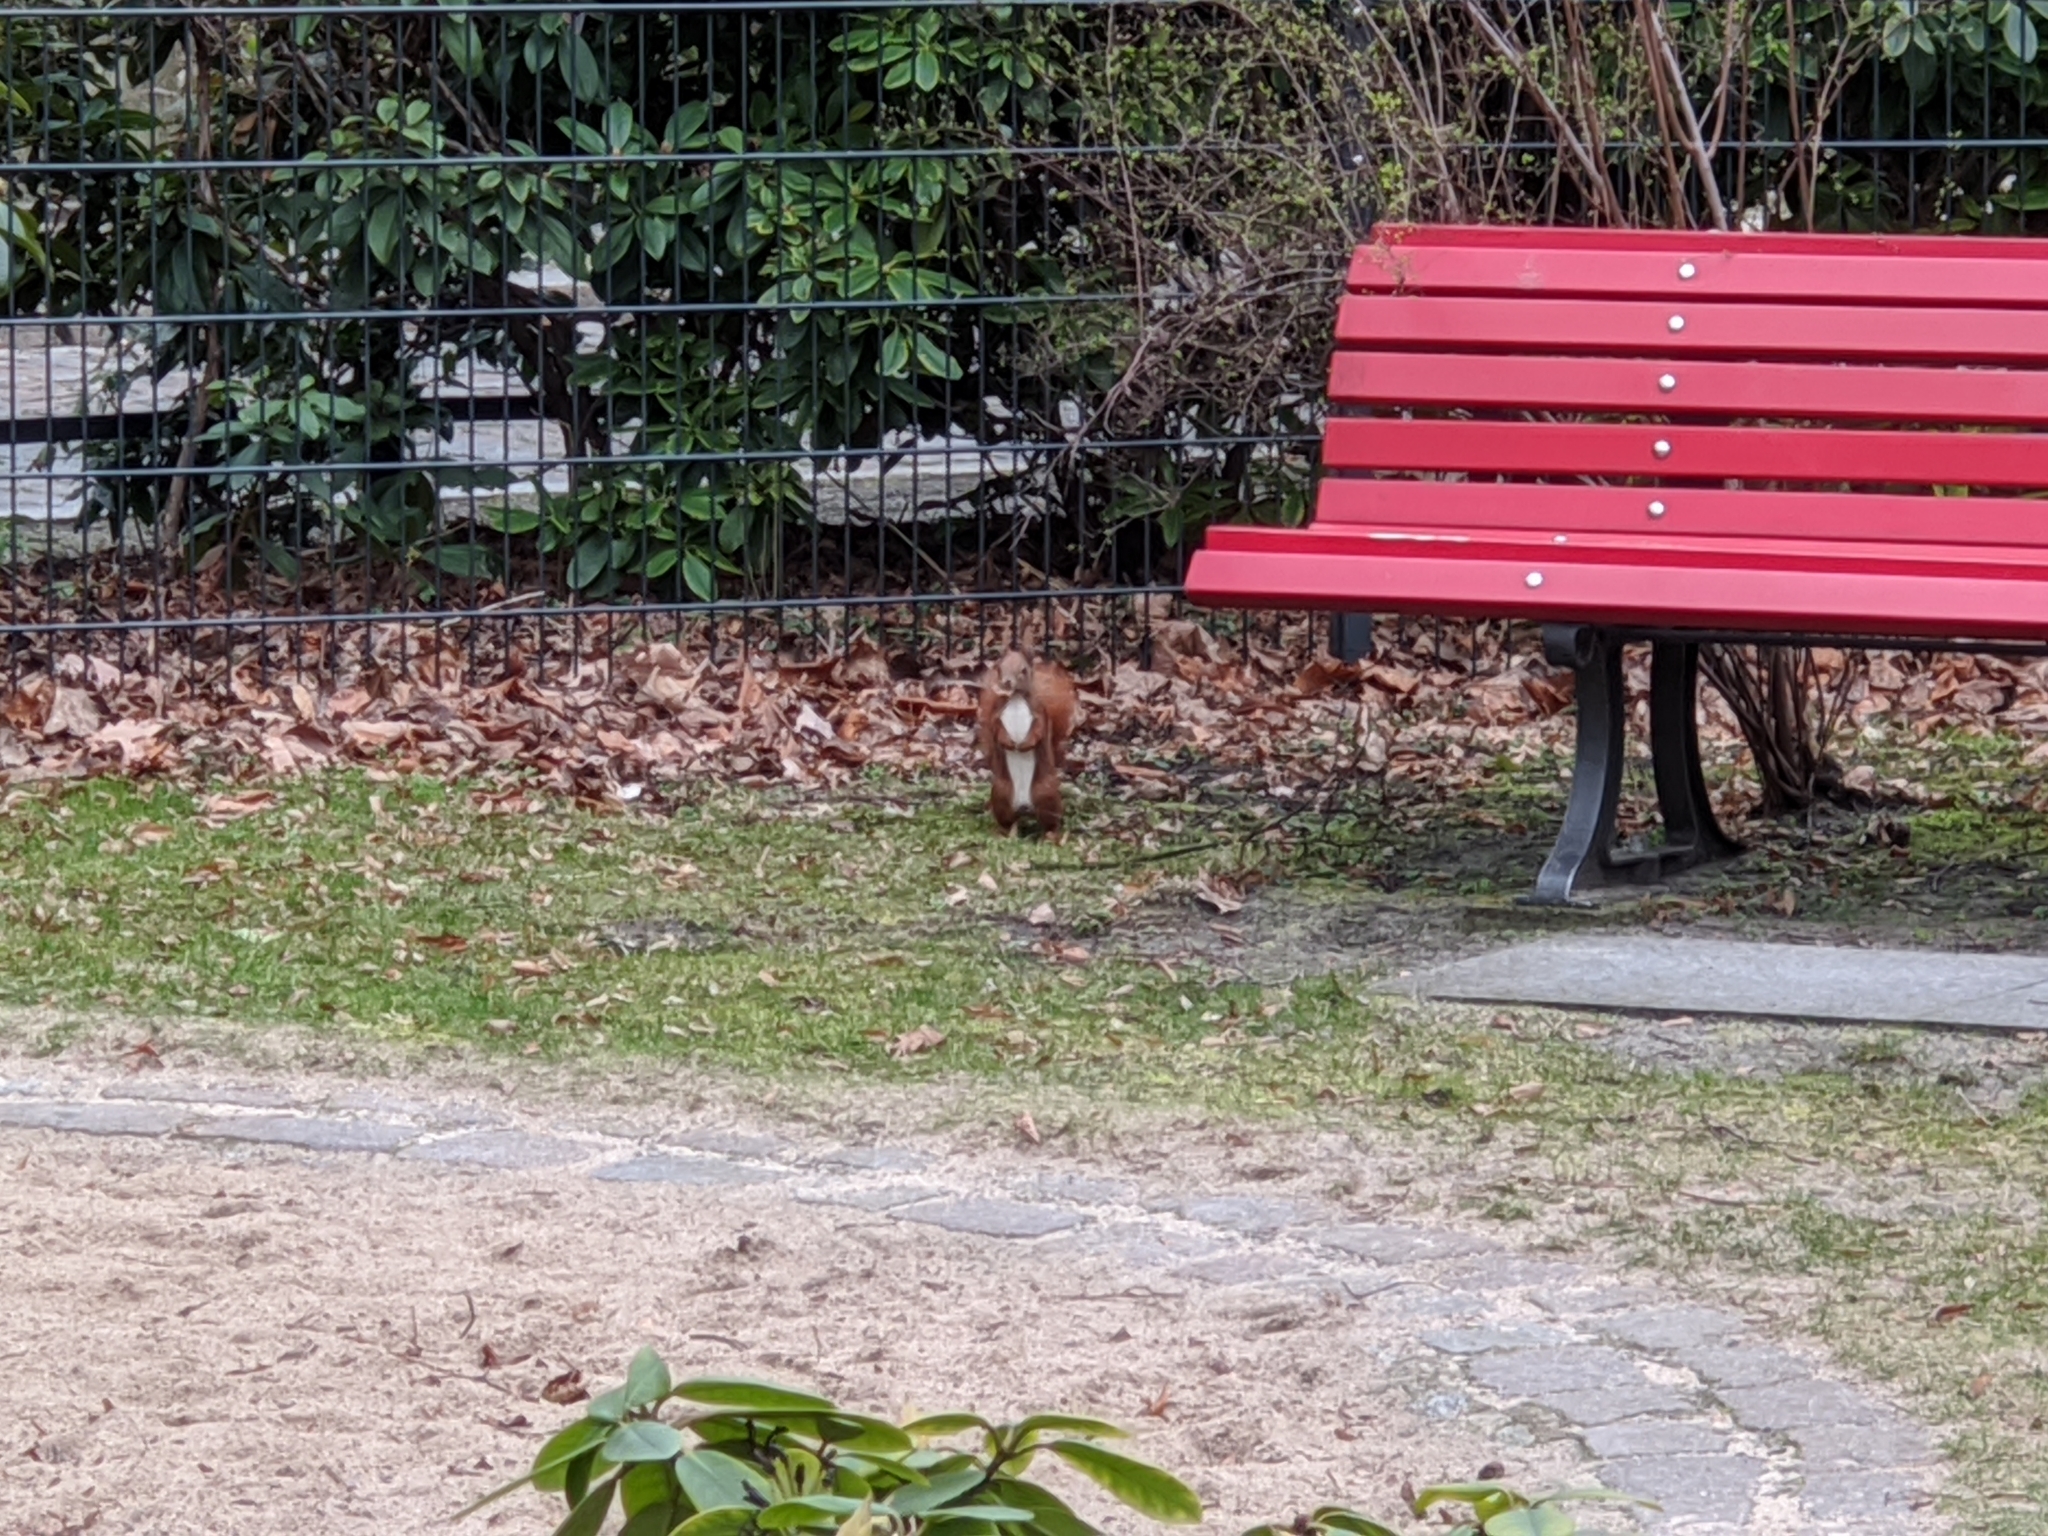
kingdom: Animalia
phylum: Chordata
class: Mammalia
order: Rodentia
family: Sciuridae
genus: Sciurus
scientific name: Sciurus vulgaris
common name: Eurasian red squirrel
